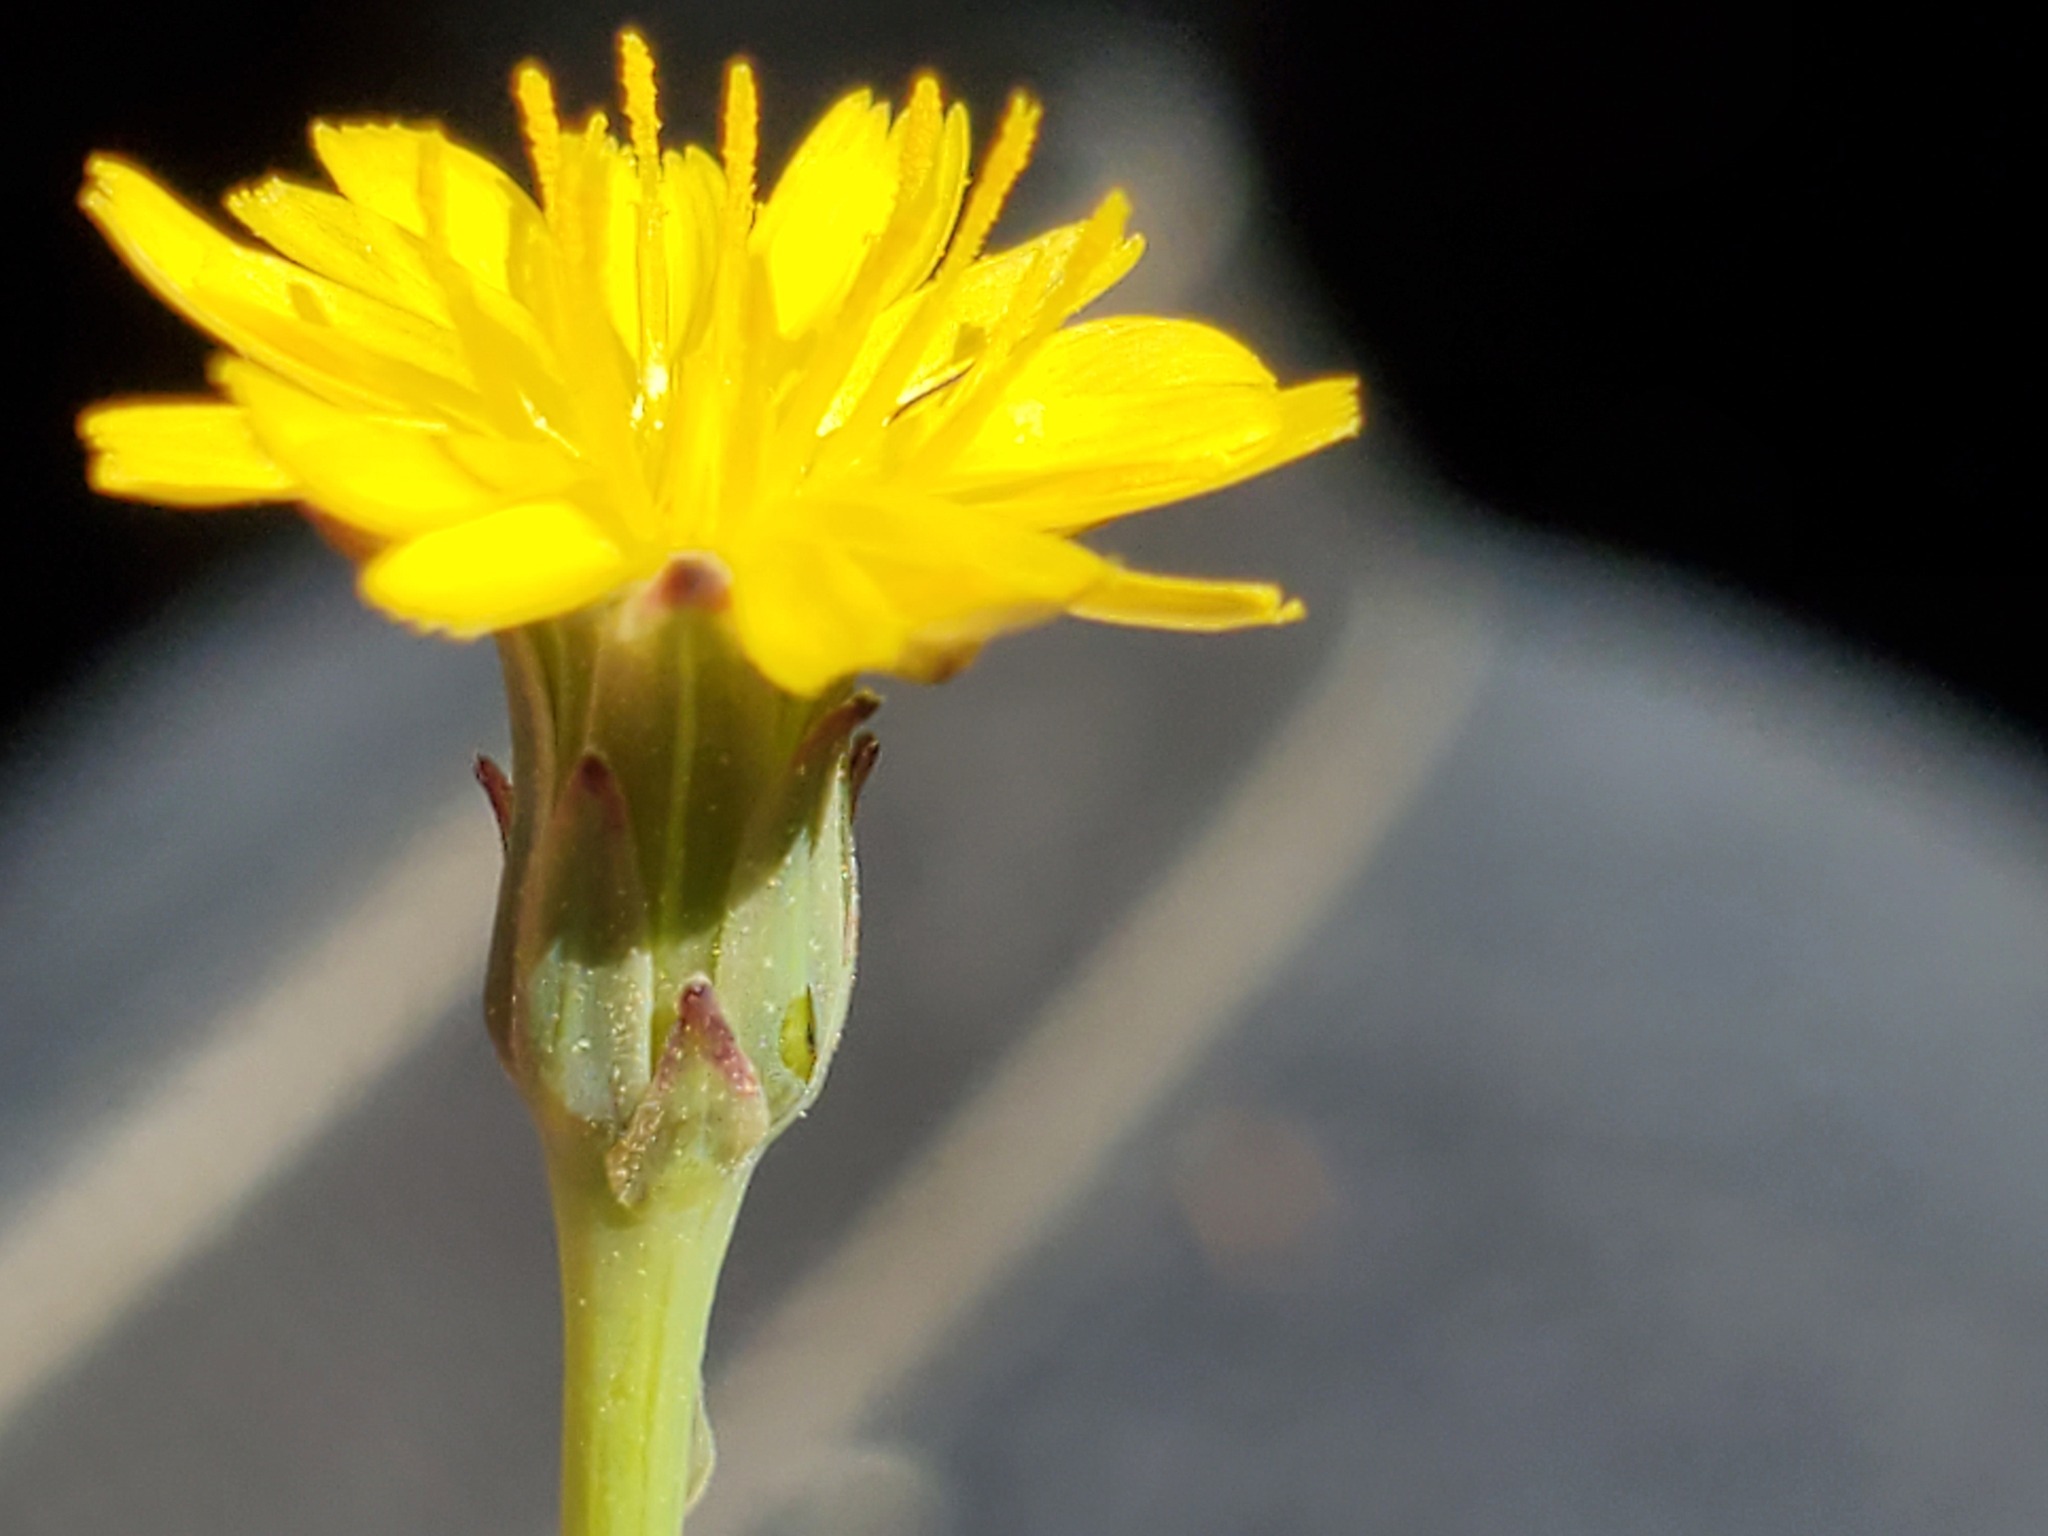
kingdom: Plantae
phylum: Tracheophyta
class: Magnoliopsida
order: Asterales
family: Asteraceae
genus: Hypochaeris
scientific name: Hypochaeris glabra
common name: Smooth catsear
